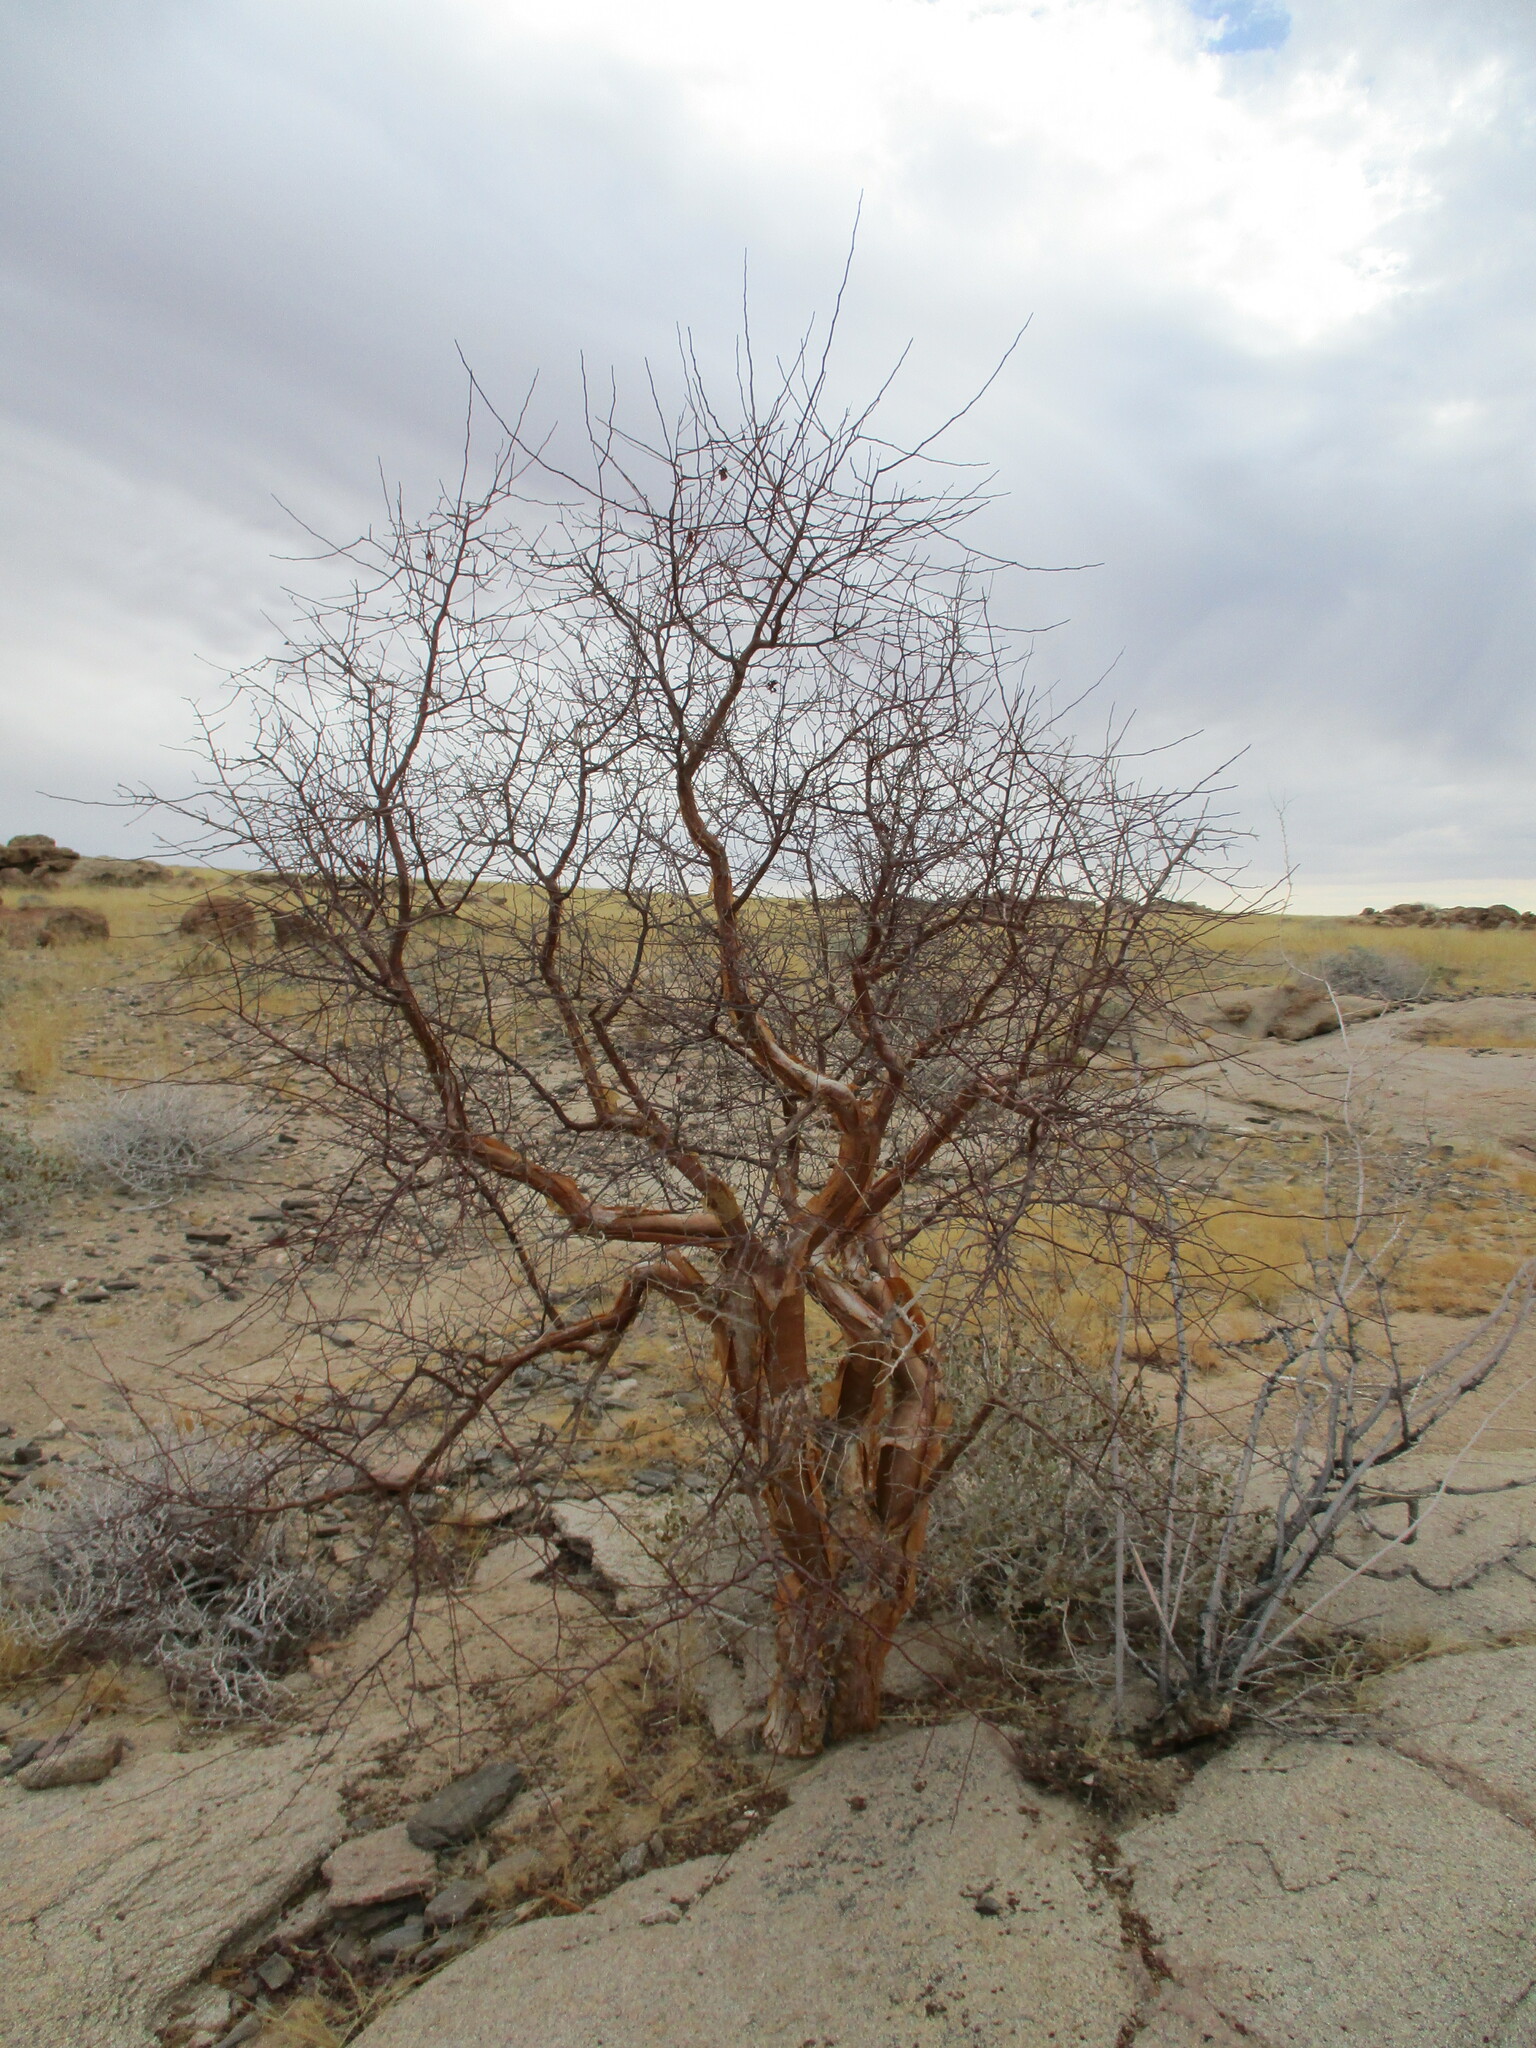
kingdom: Plantae
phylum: Tracheophyta
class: Magnoliopsida
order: Sapindales
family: Burseraceae
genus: Commiphora
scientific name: Commiphora glaucescens
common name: Blue-leaved corkwood
